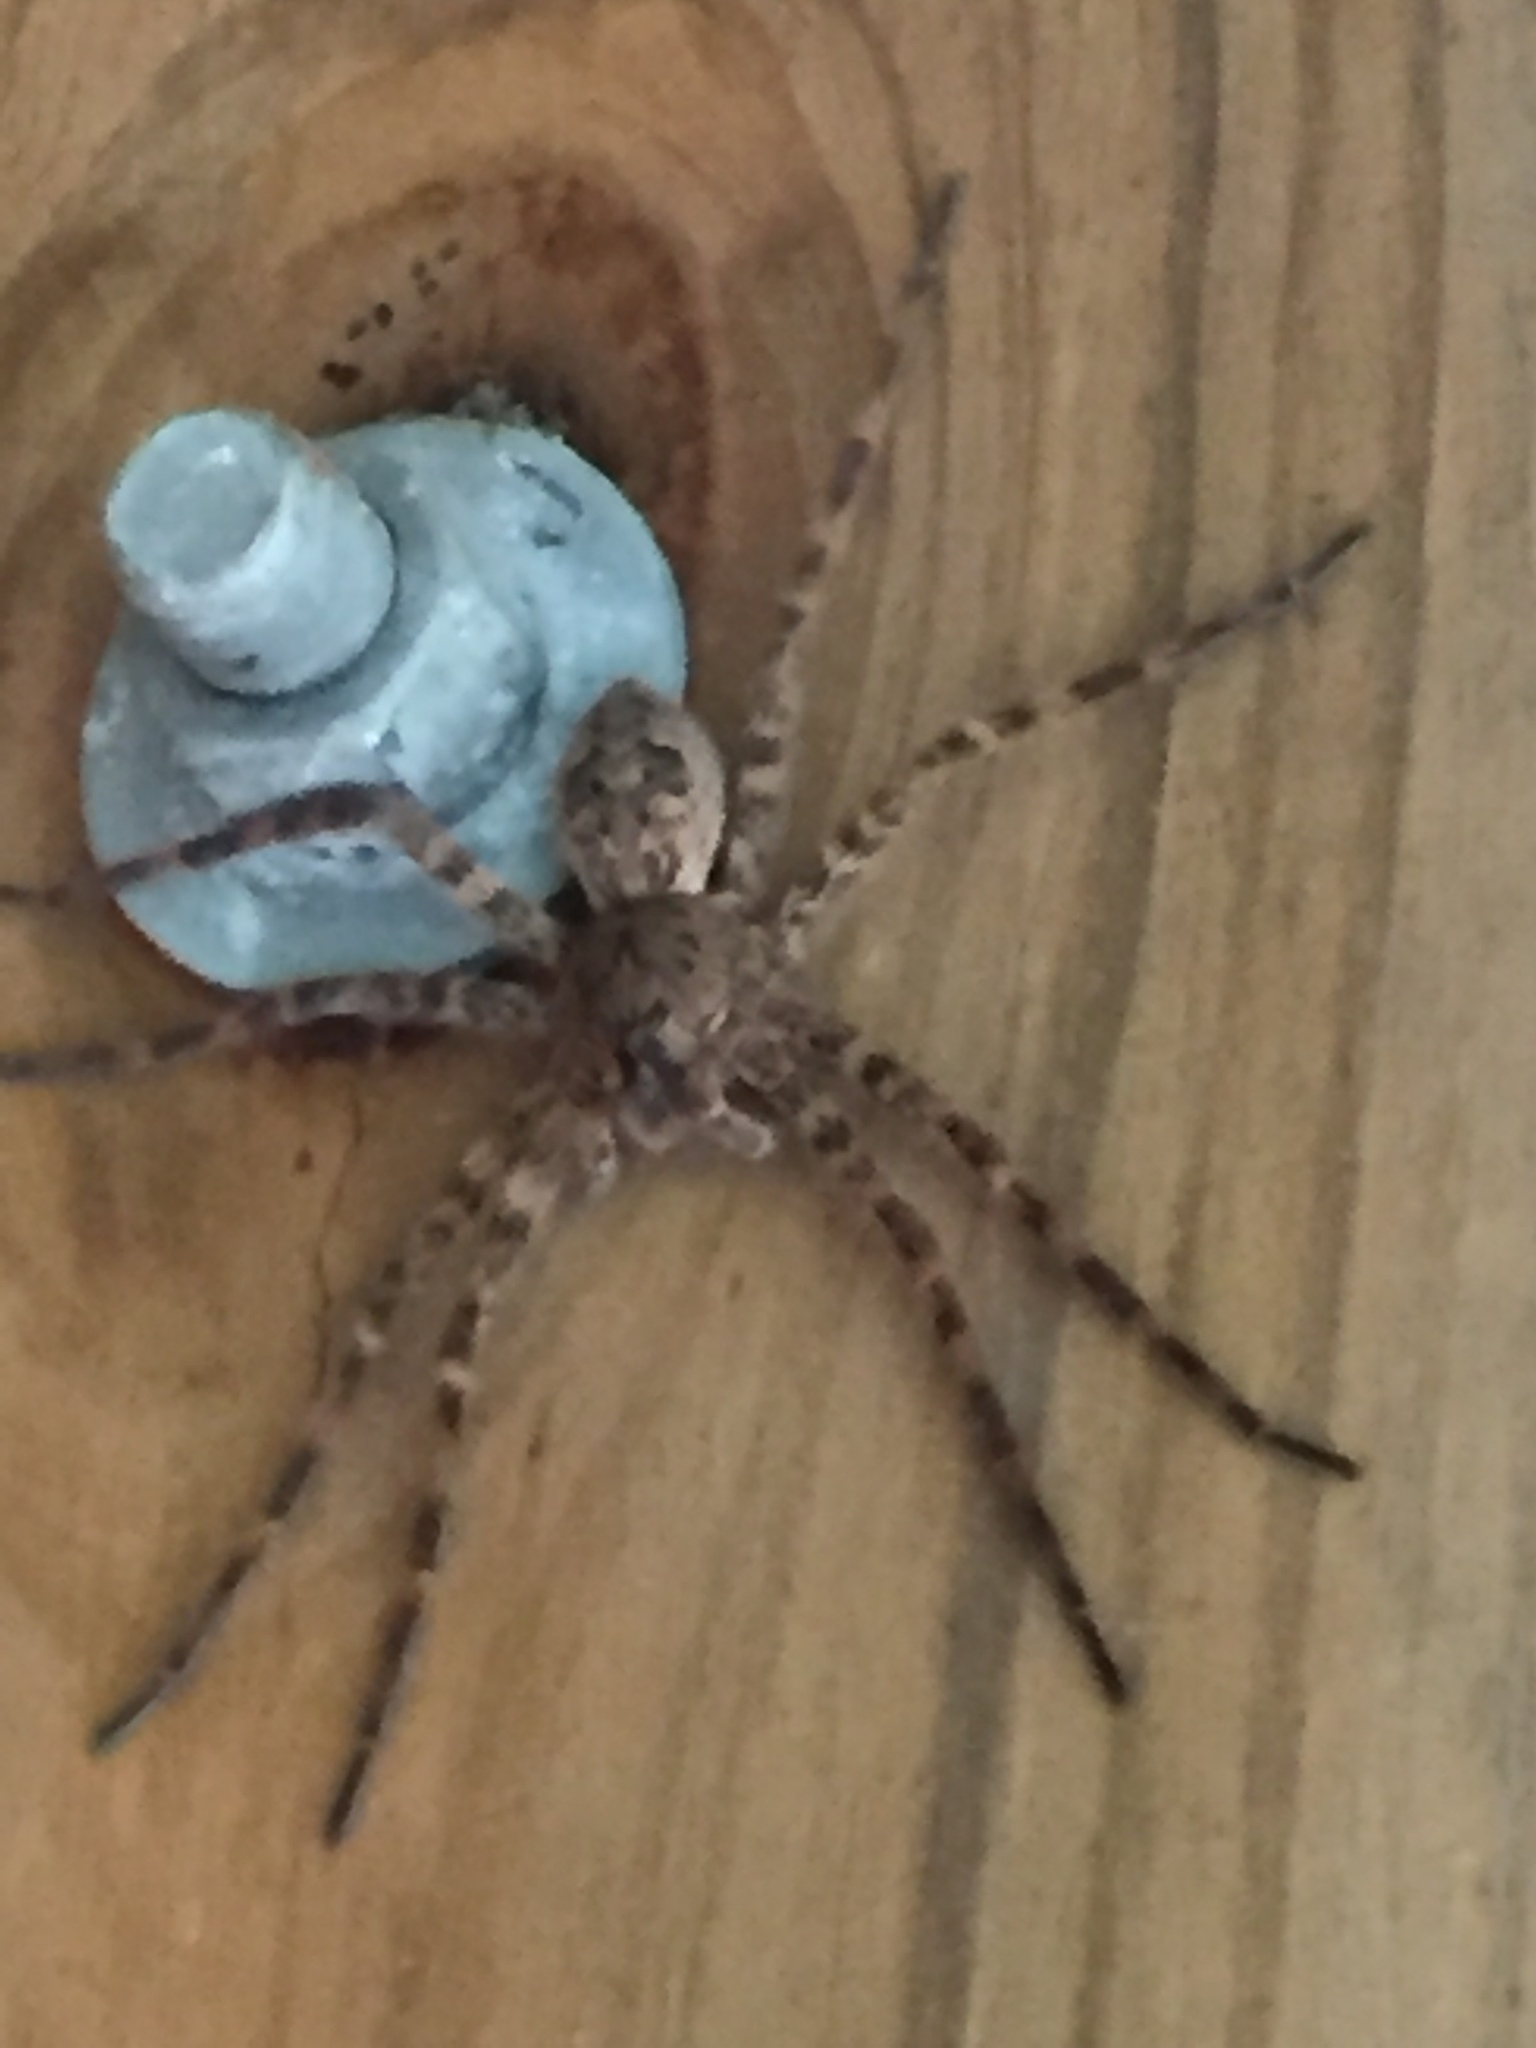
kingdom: Animalia
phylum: Arthropoda
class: Arachnida
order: Araneae
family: Pisauridae
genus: Dolomedes
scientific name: Dolomedes tenebrosus
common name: Dark fishing spider
